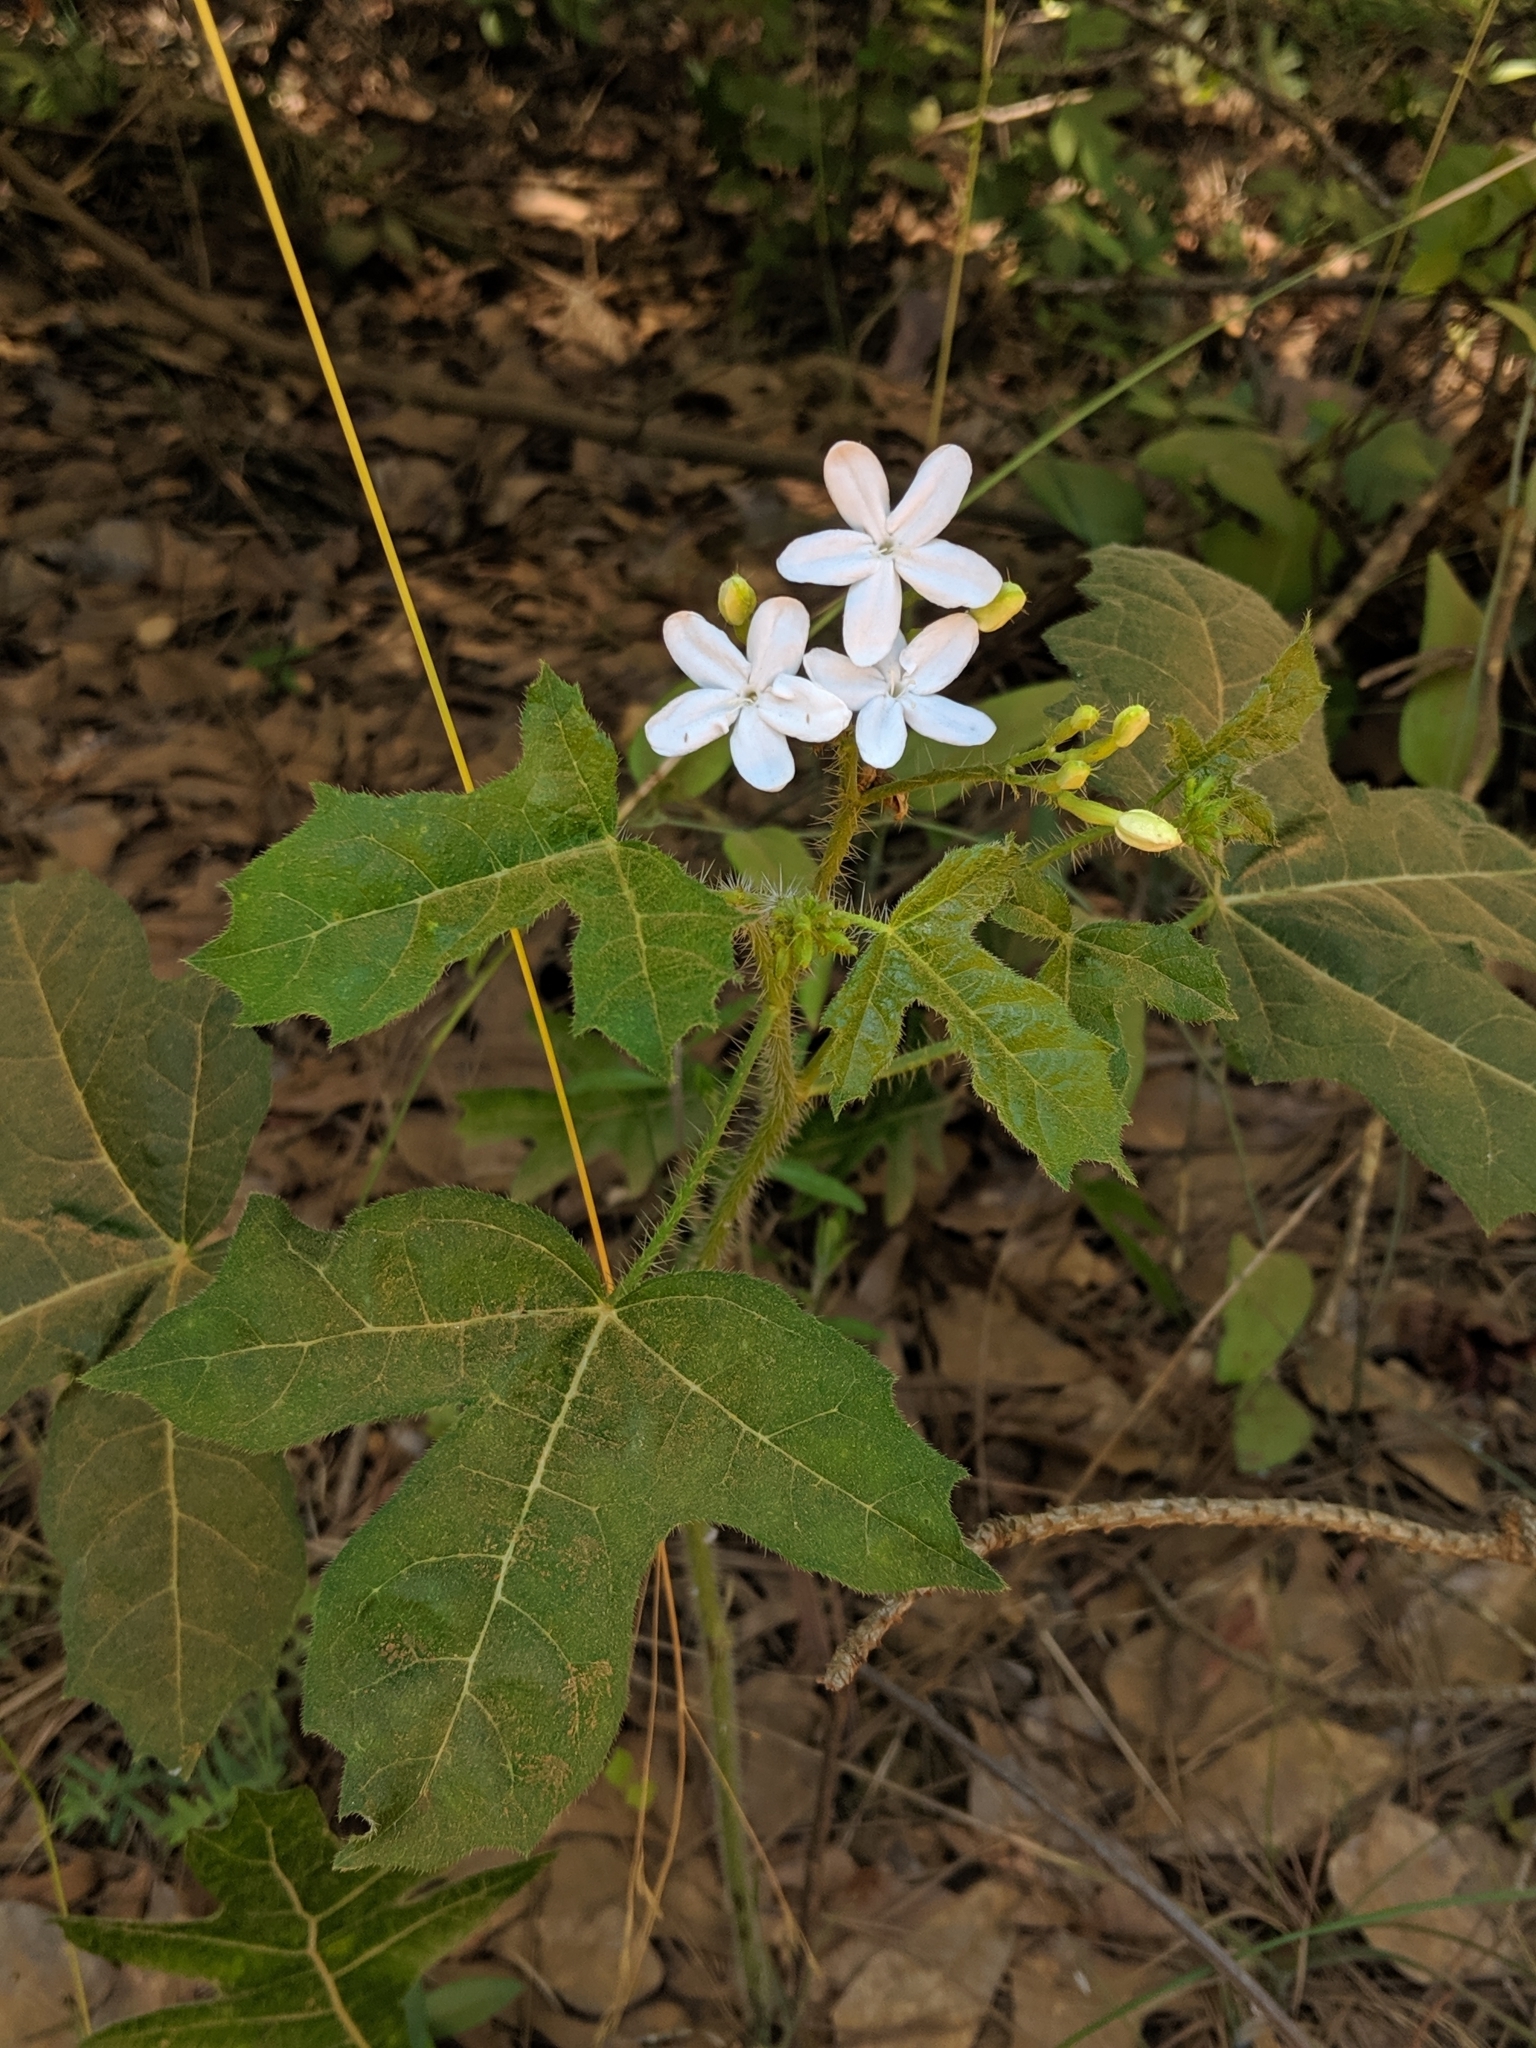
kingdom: Plantae
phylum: Tracheophyta
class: Magnoliopsida
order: Malpighiales
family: Euphorbiaceae
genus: Cnidoscolus
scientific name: Cnidoscolus stimulosus
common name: Bull-nettle
